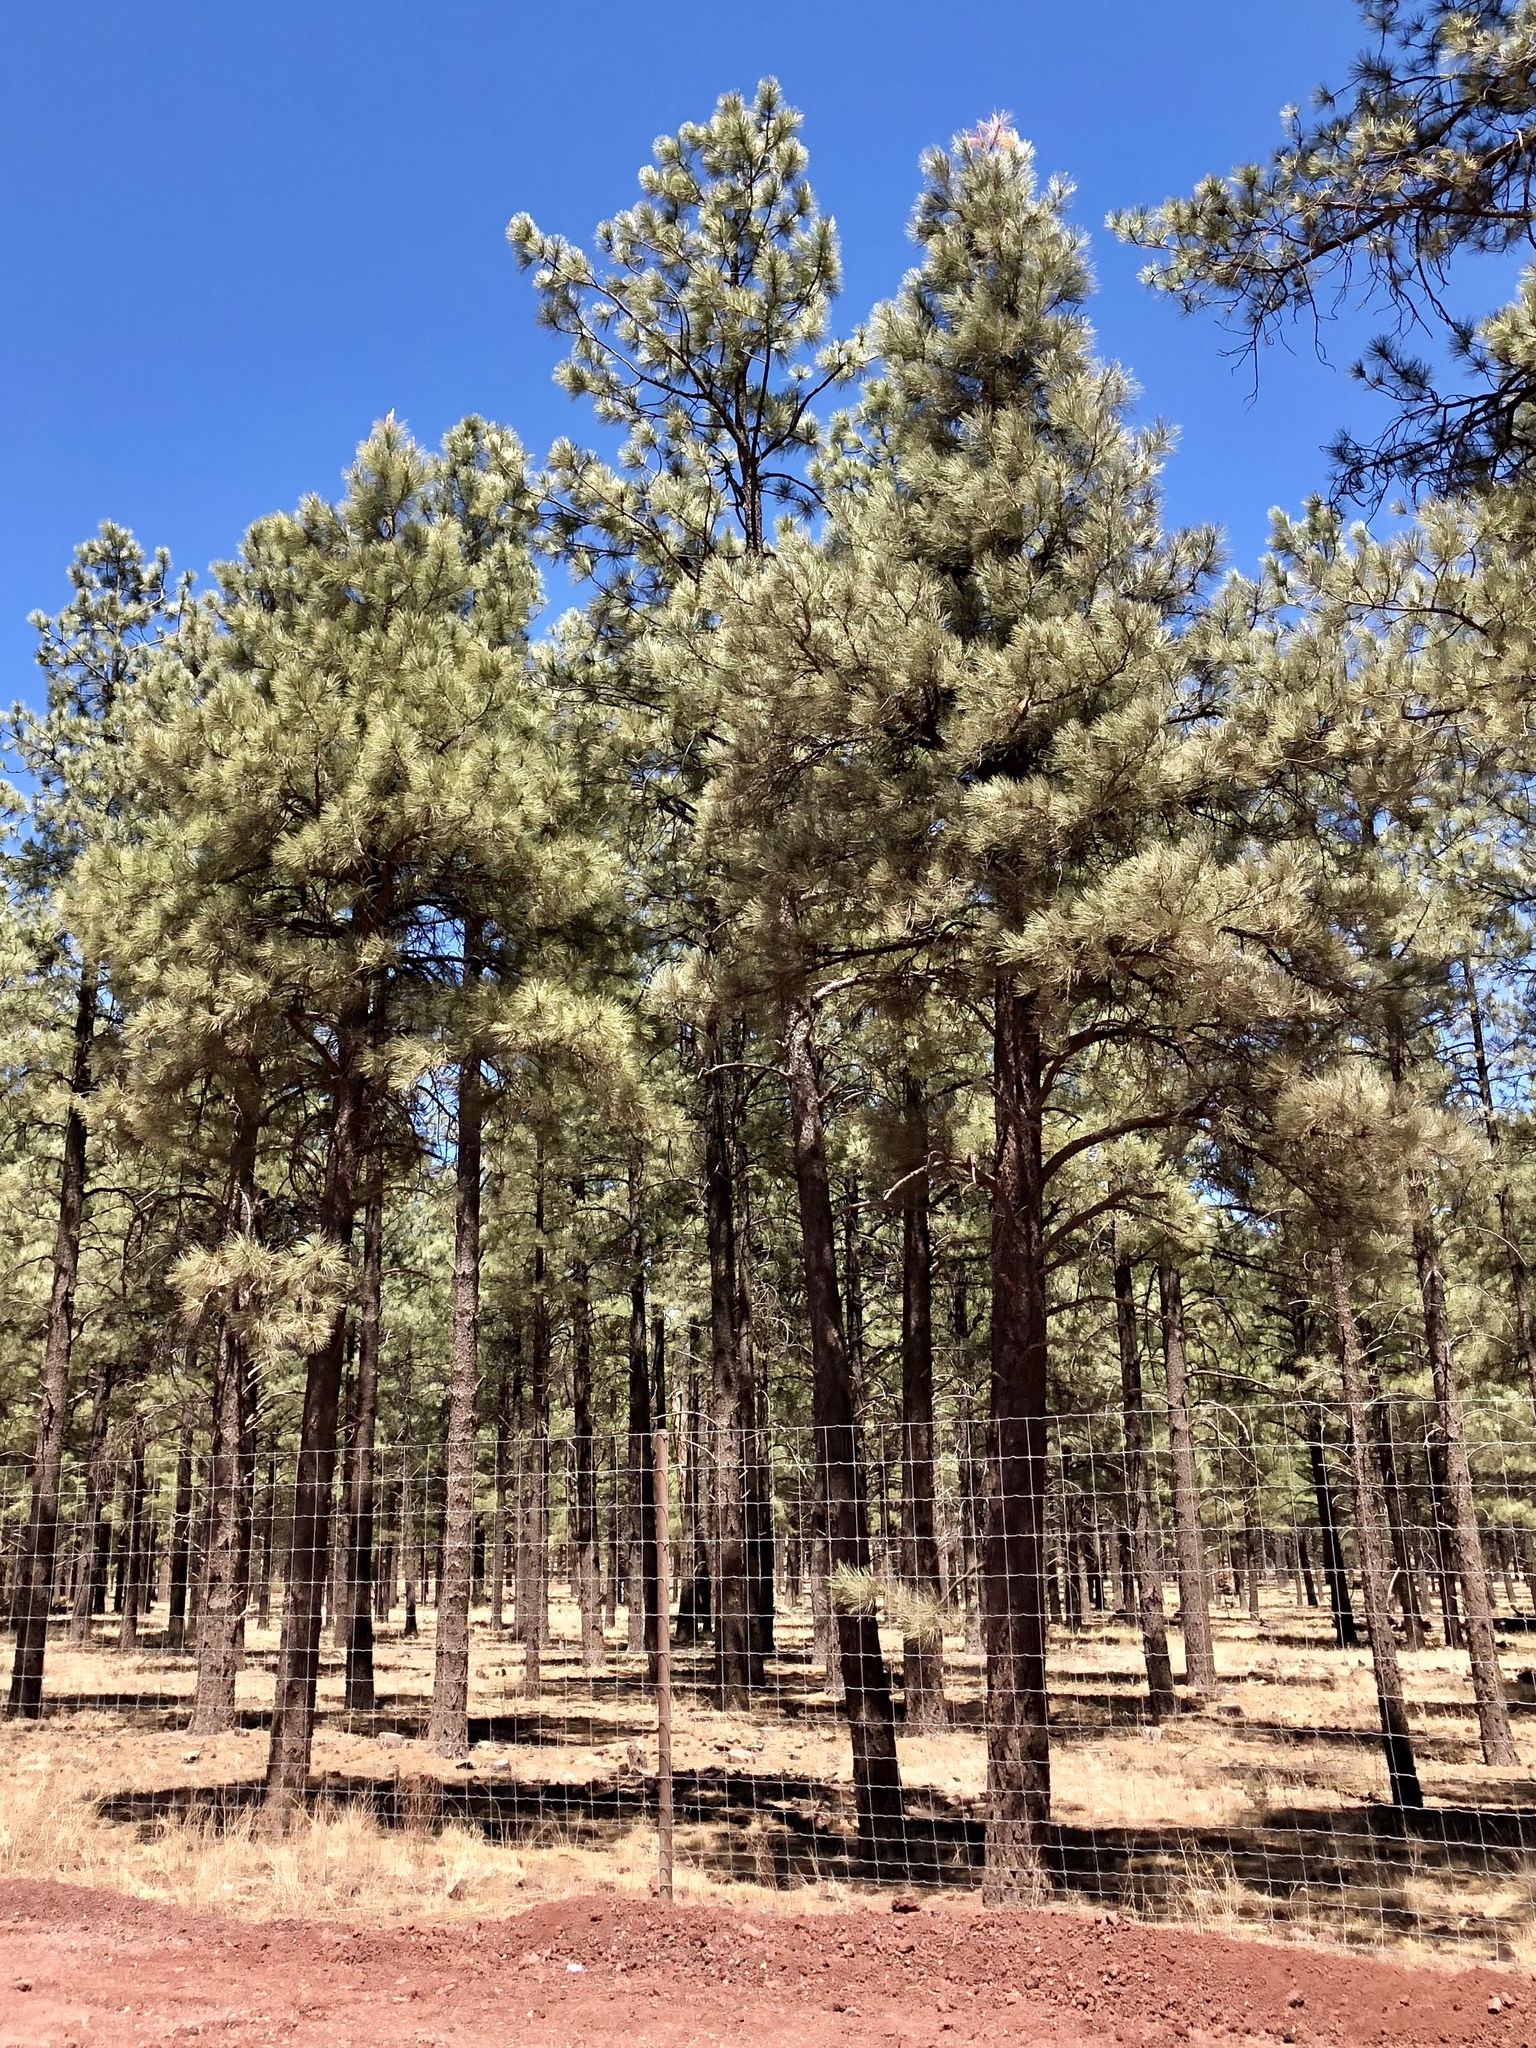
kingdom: Plantae
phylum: Tracheophyta
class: Pinopsida
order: Pinales
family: Pinaceae
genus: Pinus
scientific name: Pinus ponderosa
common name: Western yellow-pine
